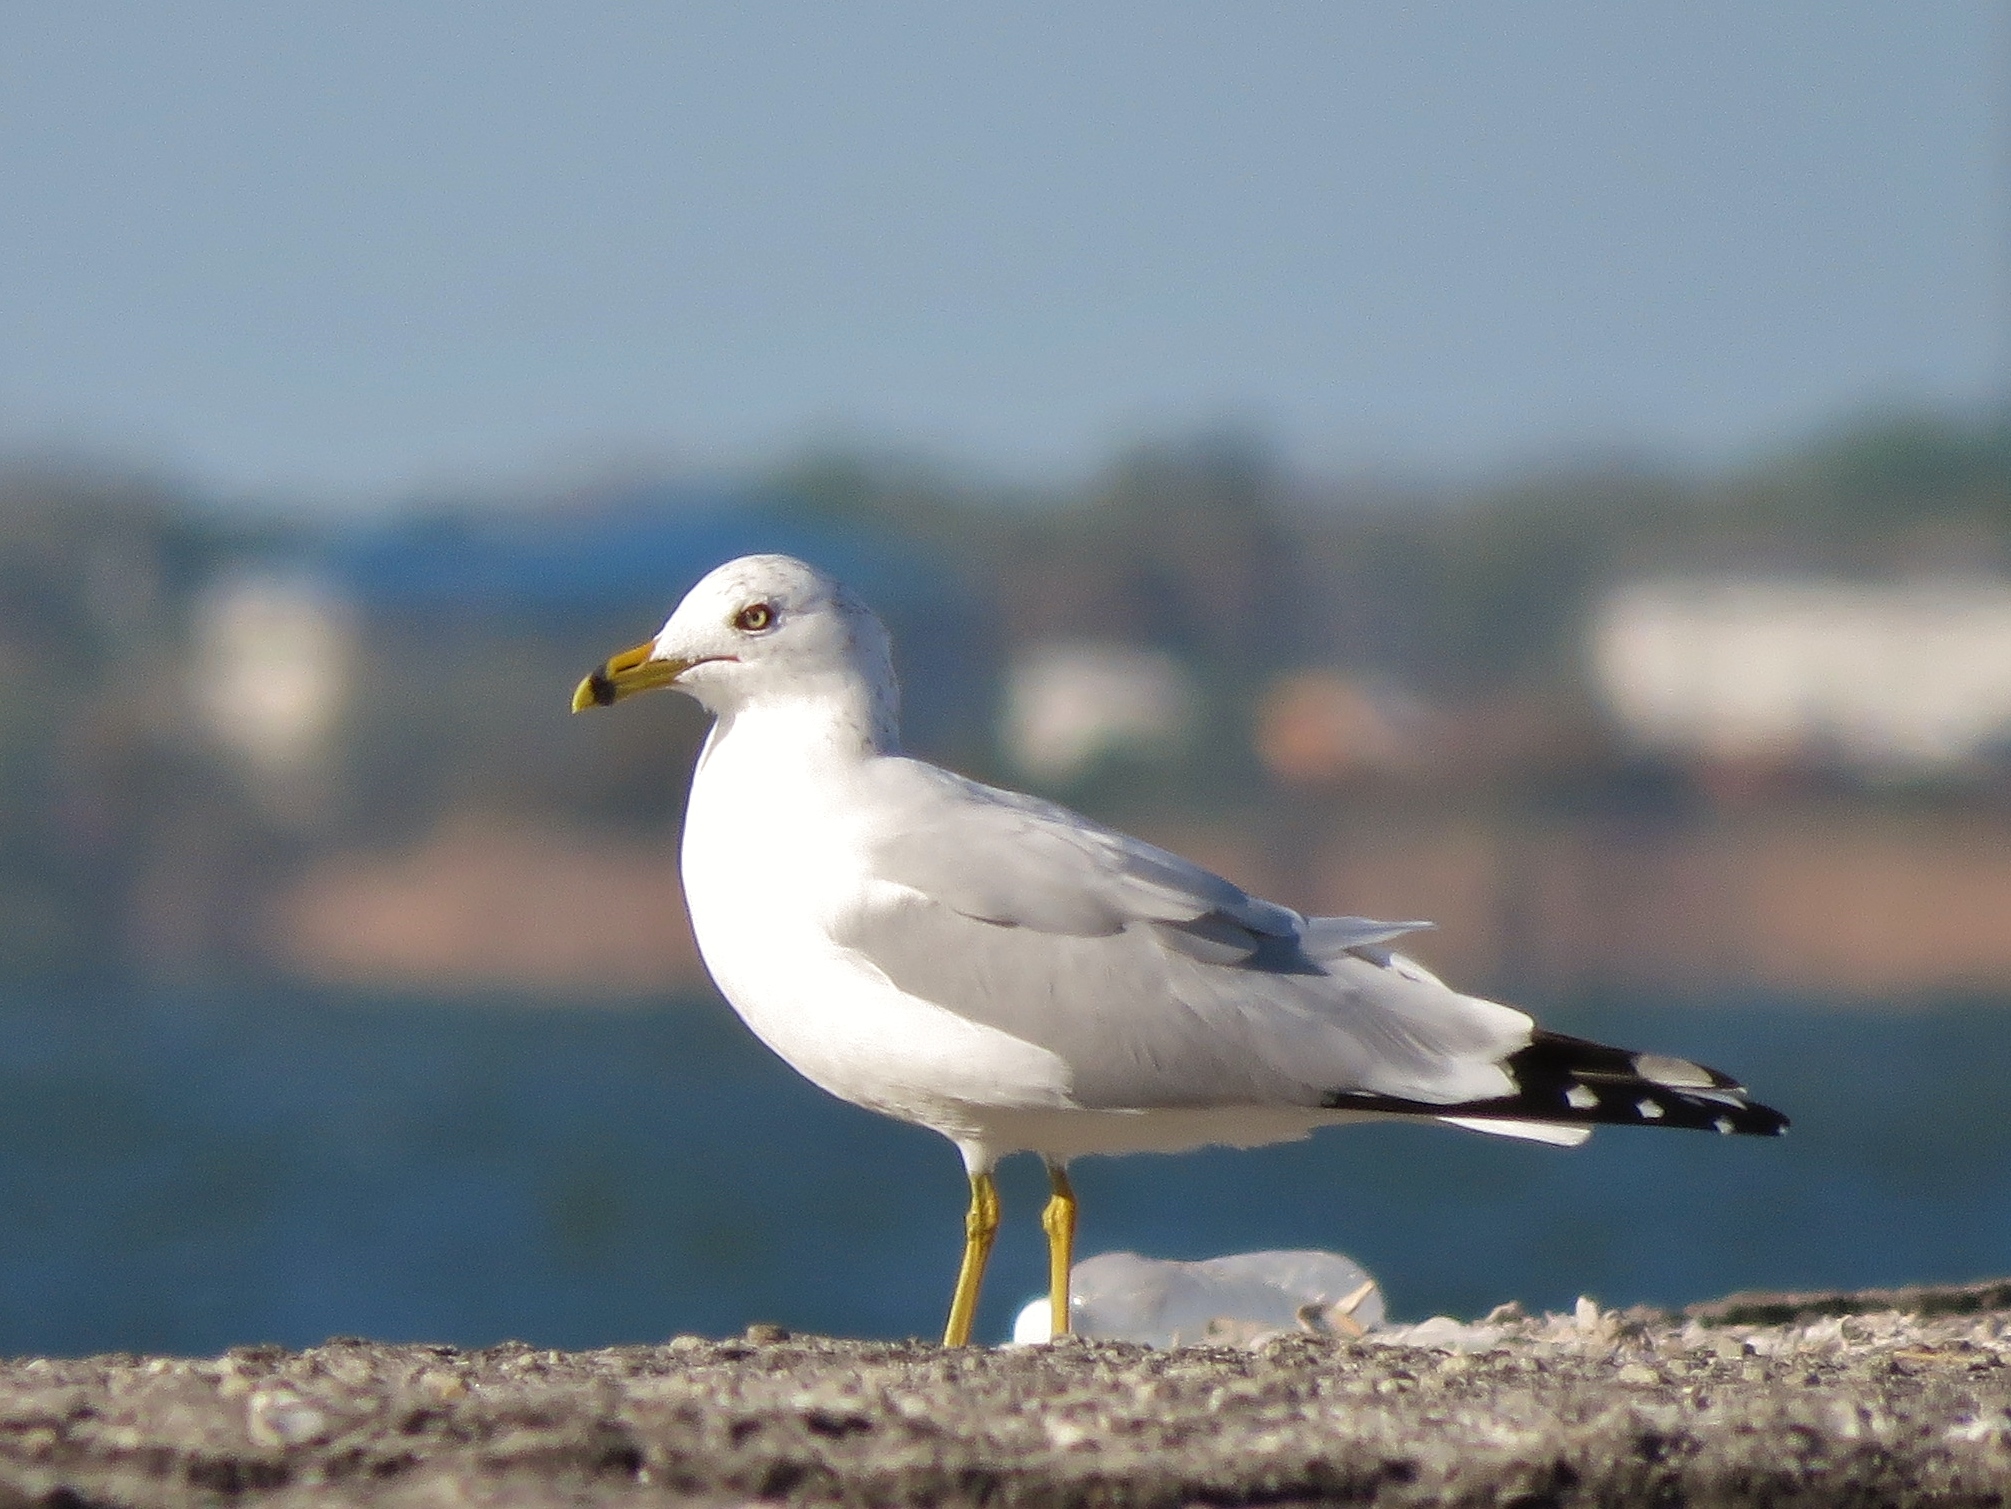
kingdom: Animalia
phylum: Chordata
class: Aves
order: Charadriiformes
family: Laridae
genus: Larus
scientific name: Larus delawarensis
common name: Ring-billed gull
